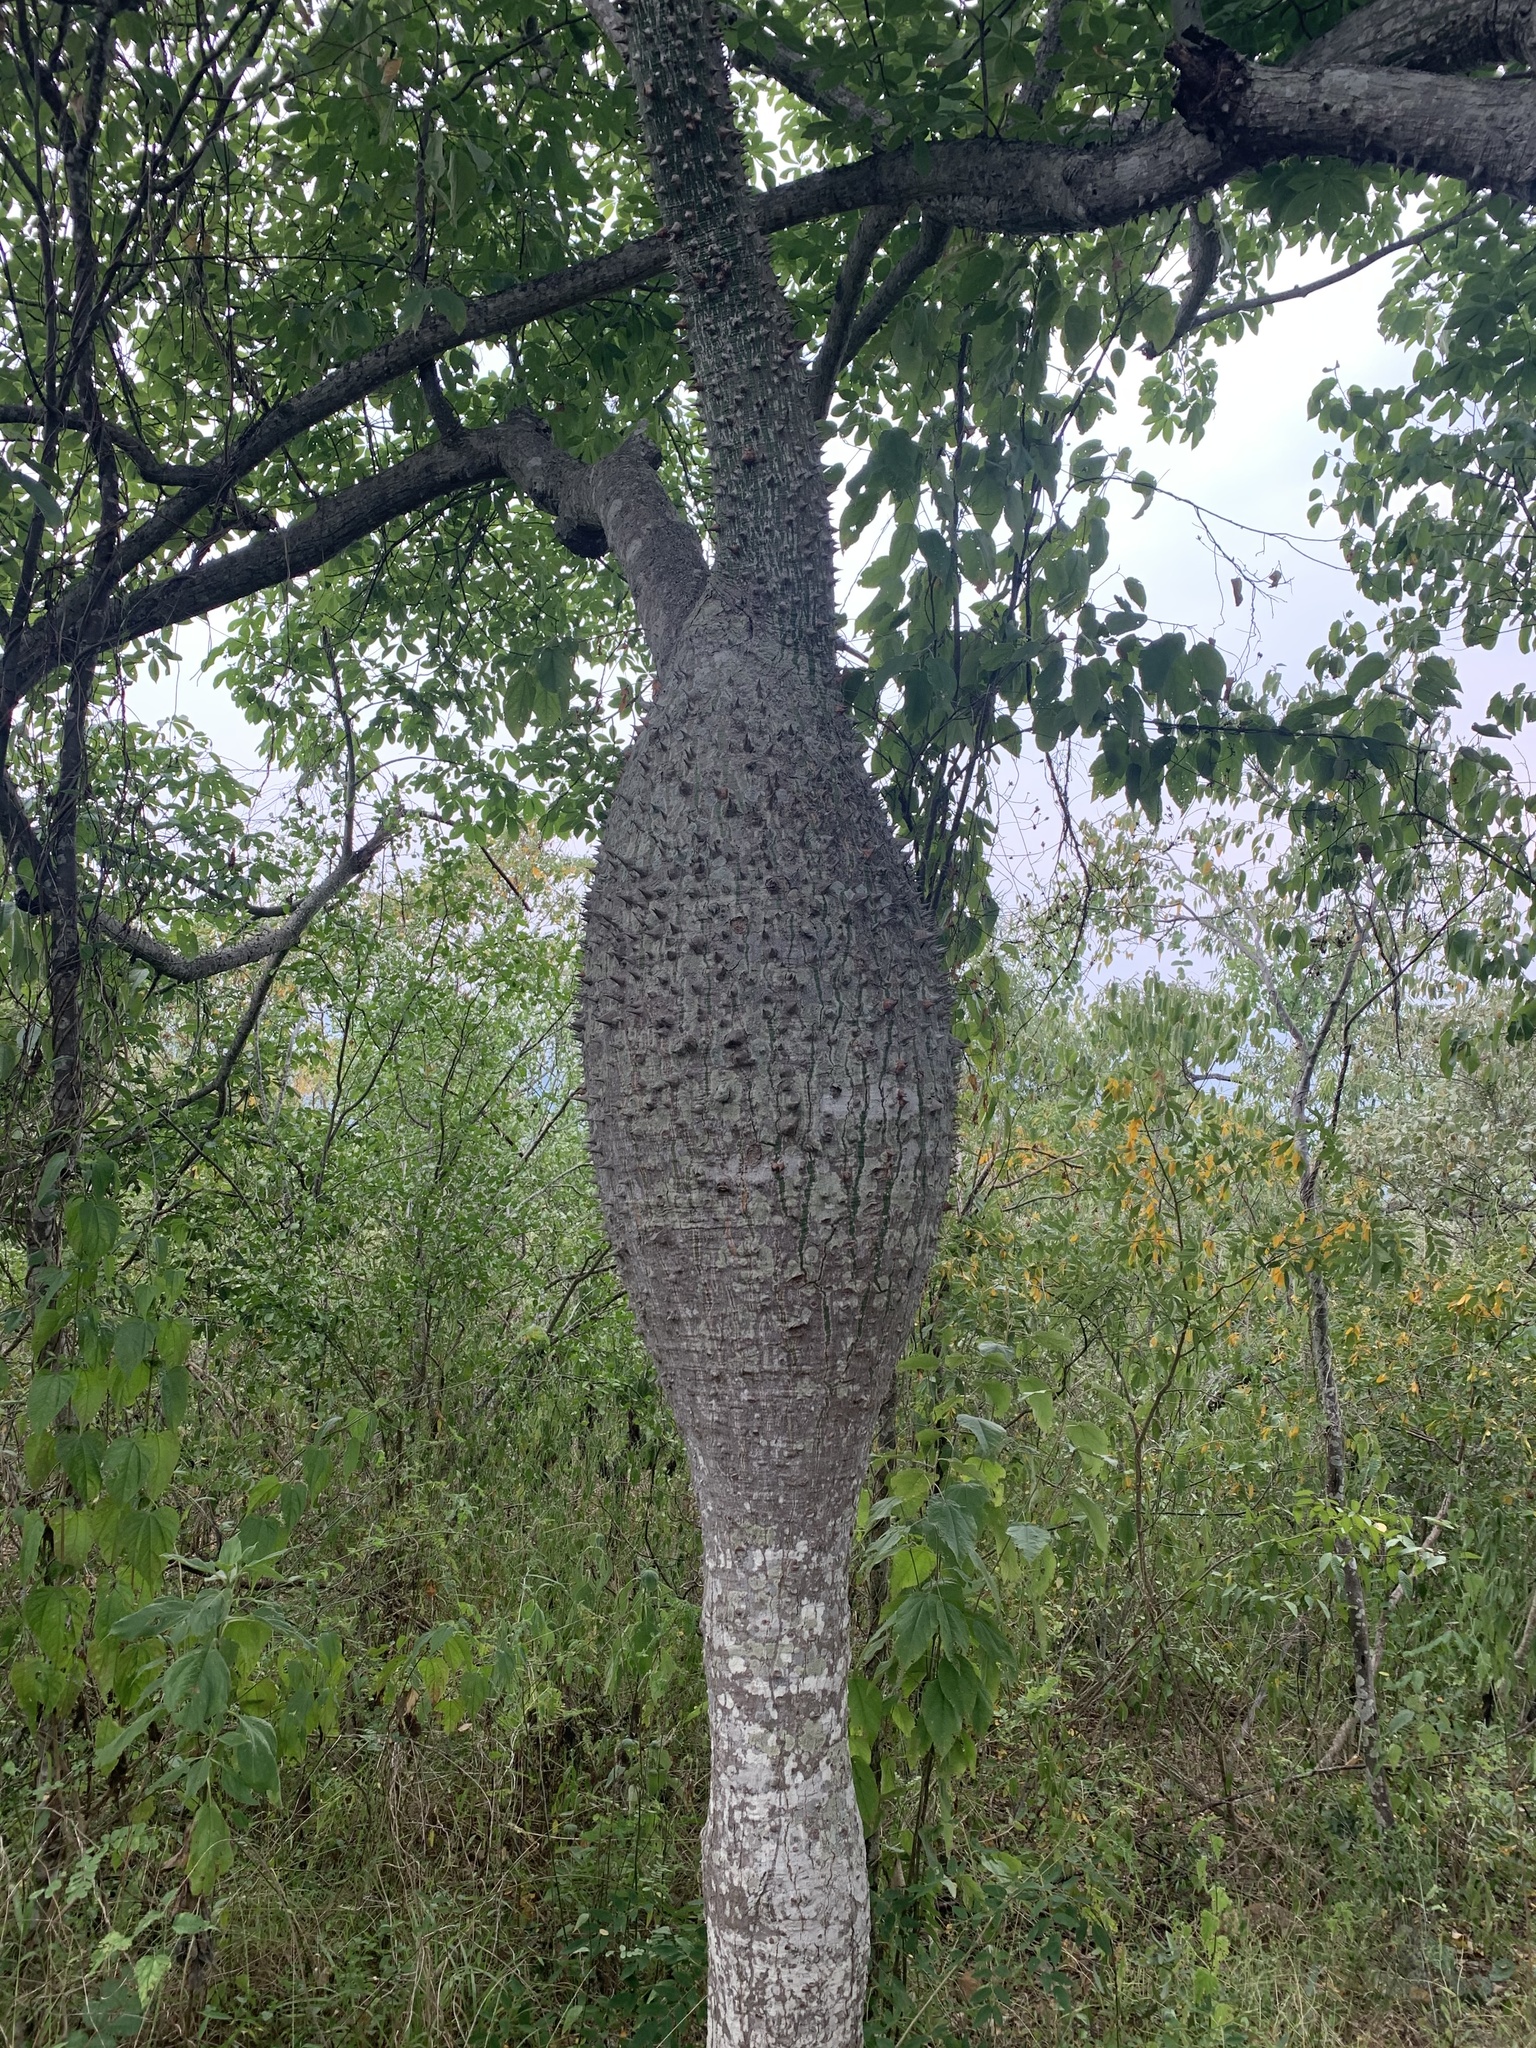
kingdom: Plantae
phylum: Tracheophyta
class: Magnoliopsida
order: Malvales
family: Malvaceae
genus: Ceiba
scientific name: Ceiba insignis
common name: White silk floss tree
